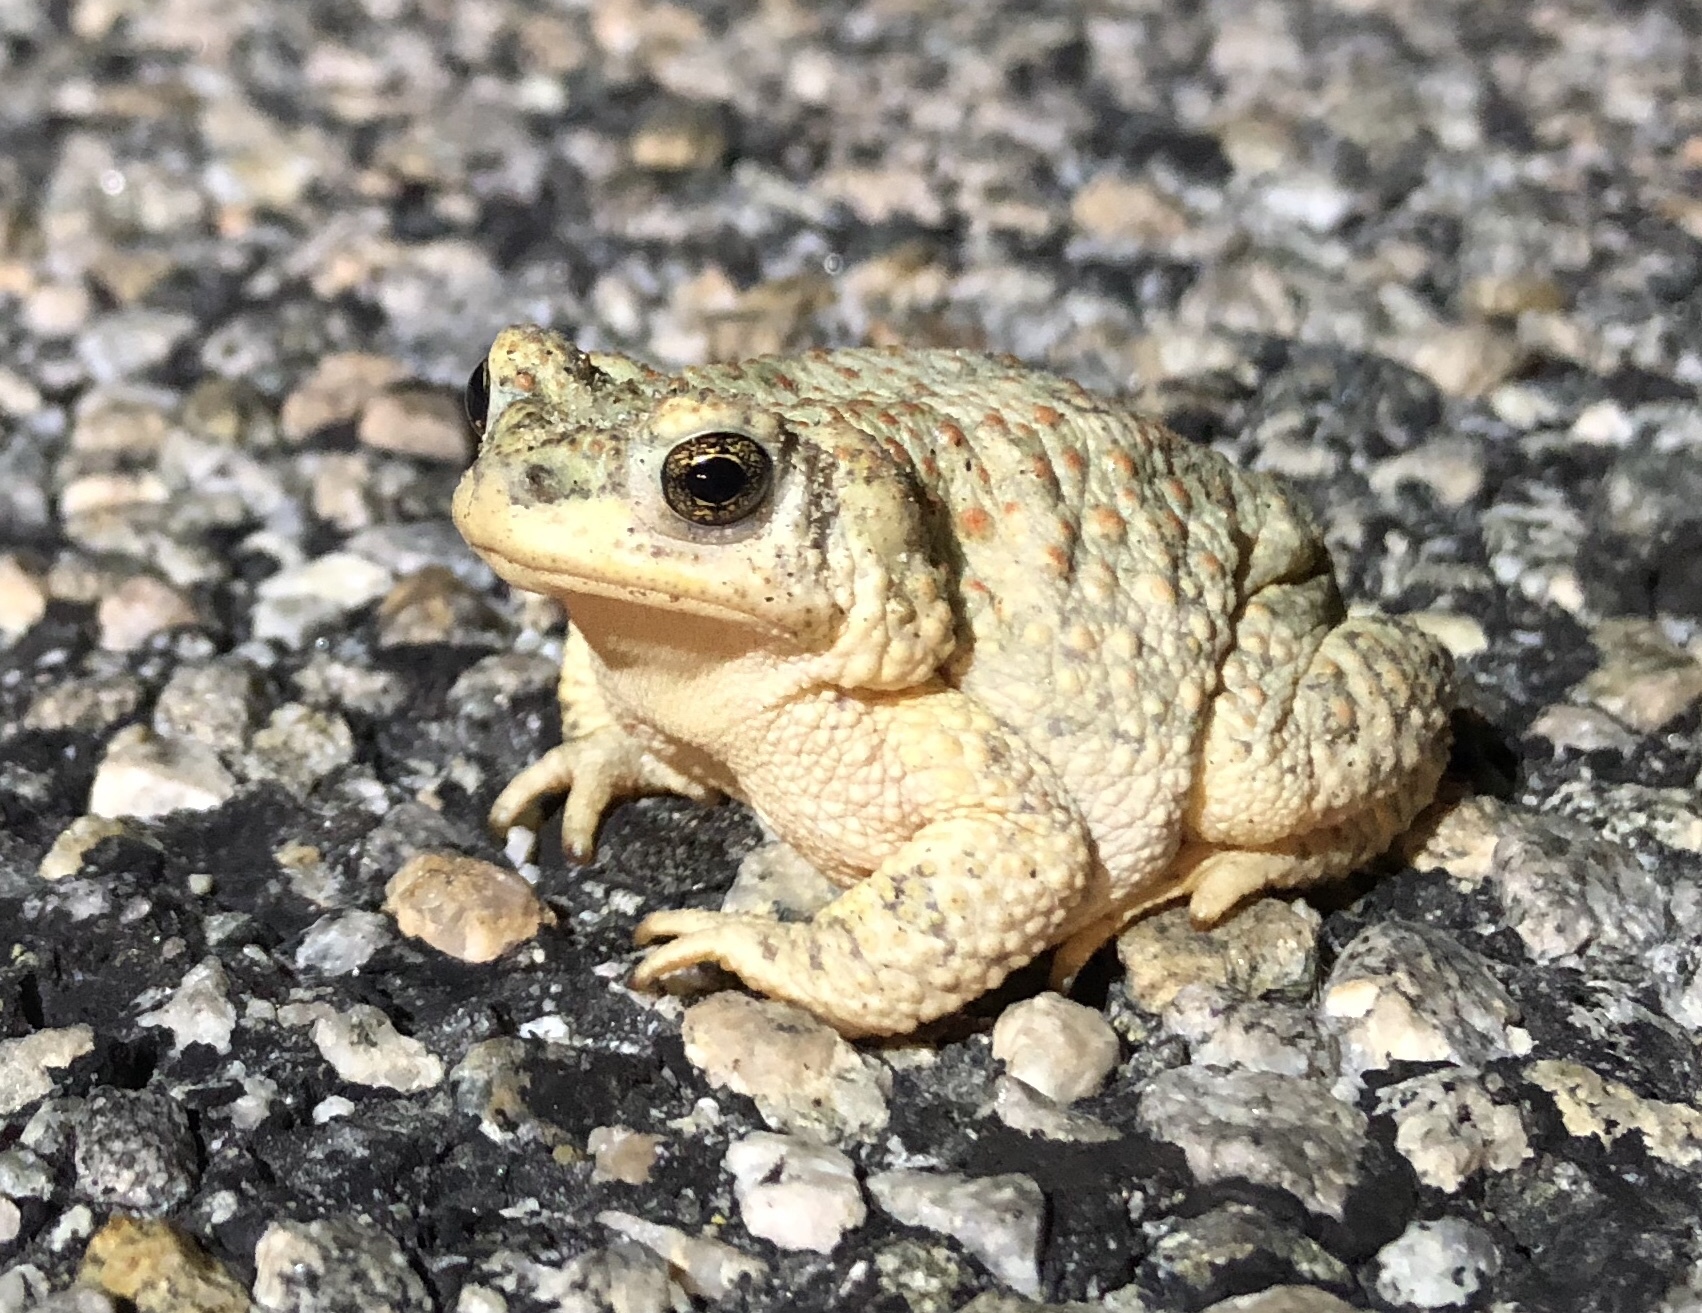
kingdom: Animalia
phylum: Chordata
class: Amphibia
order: Anura
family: Bufonidae
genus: Anaxyrus
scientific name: Anaxyrus punctatus
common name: Red-spotted toad
